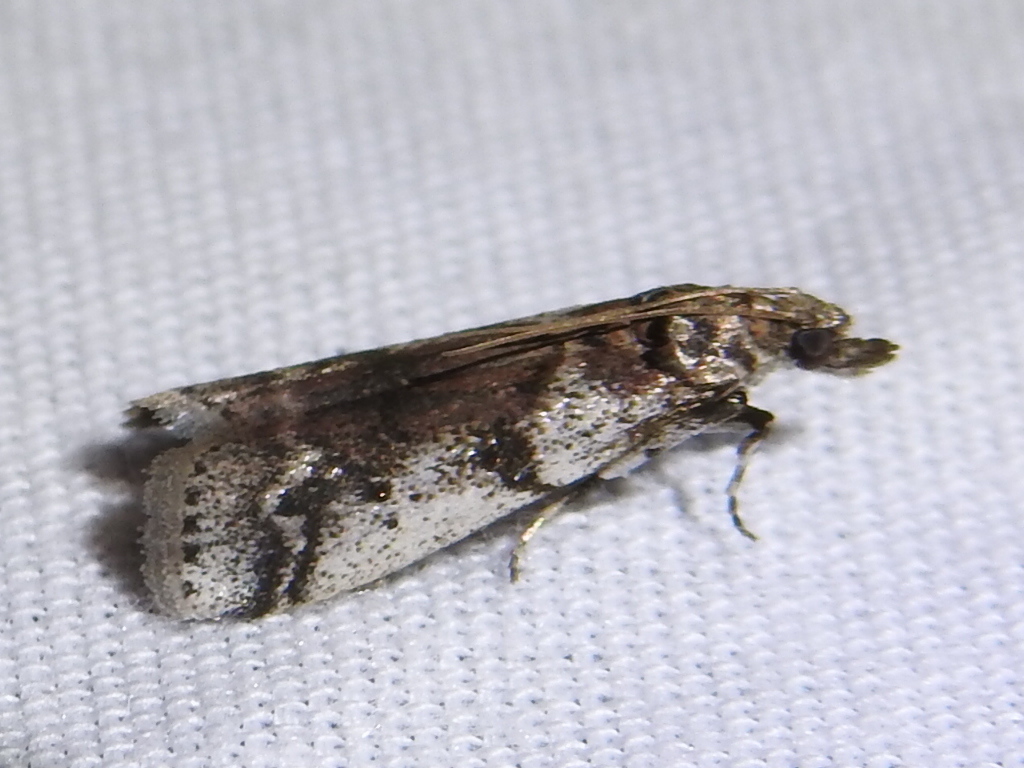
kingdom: Animalia
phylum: Arthropoda
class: Insecta
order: Lepidoptera
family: Pyralidae
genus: Laetilia
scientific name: Laetilia coccidivora
